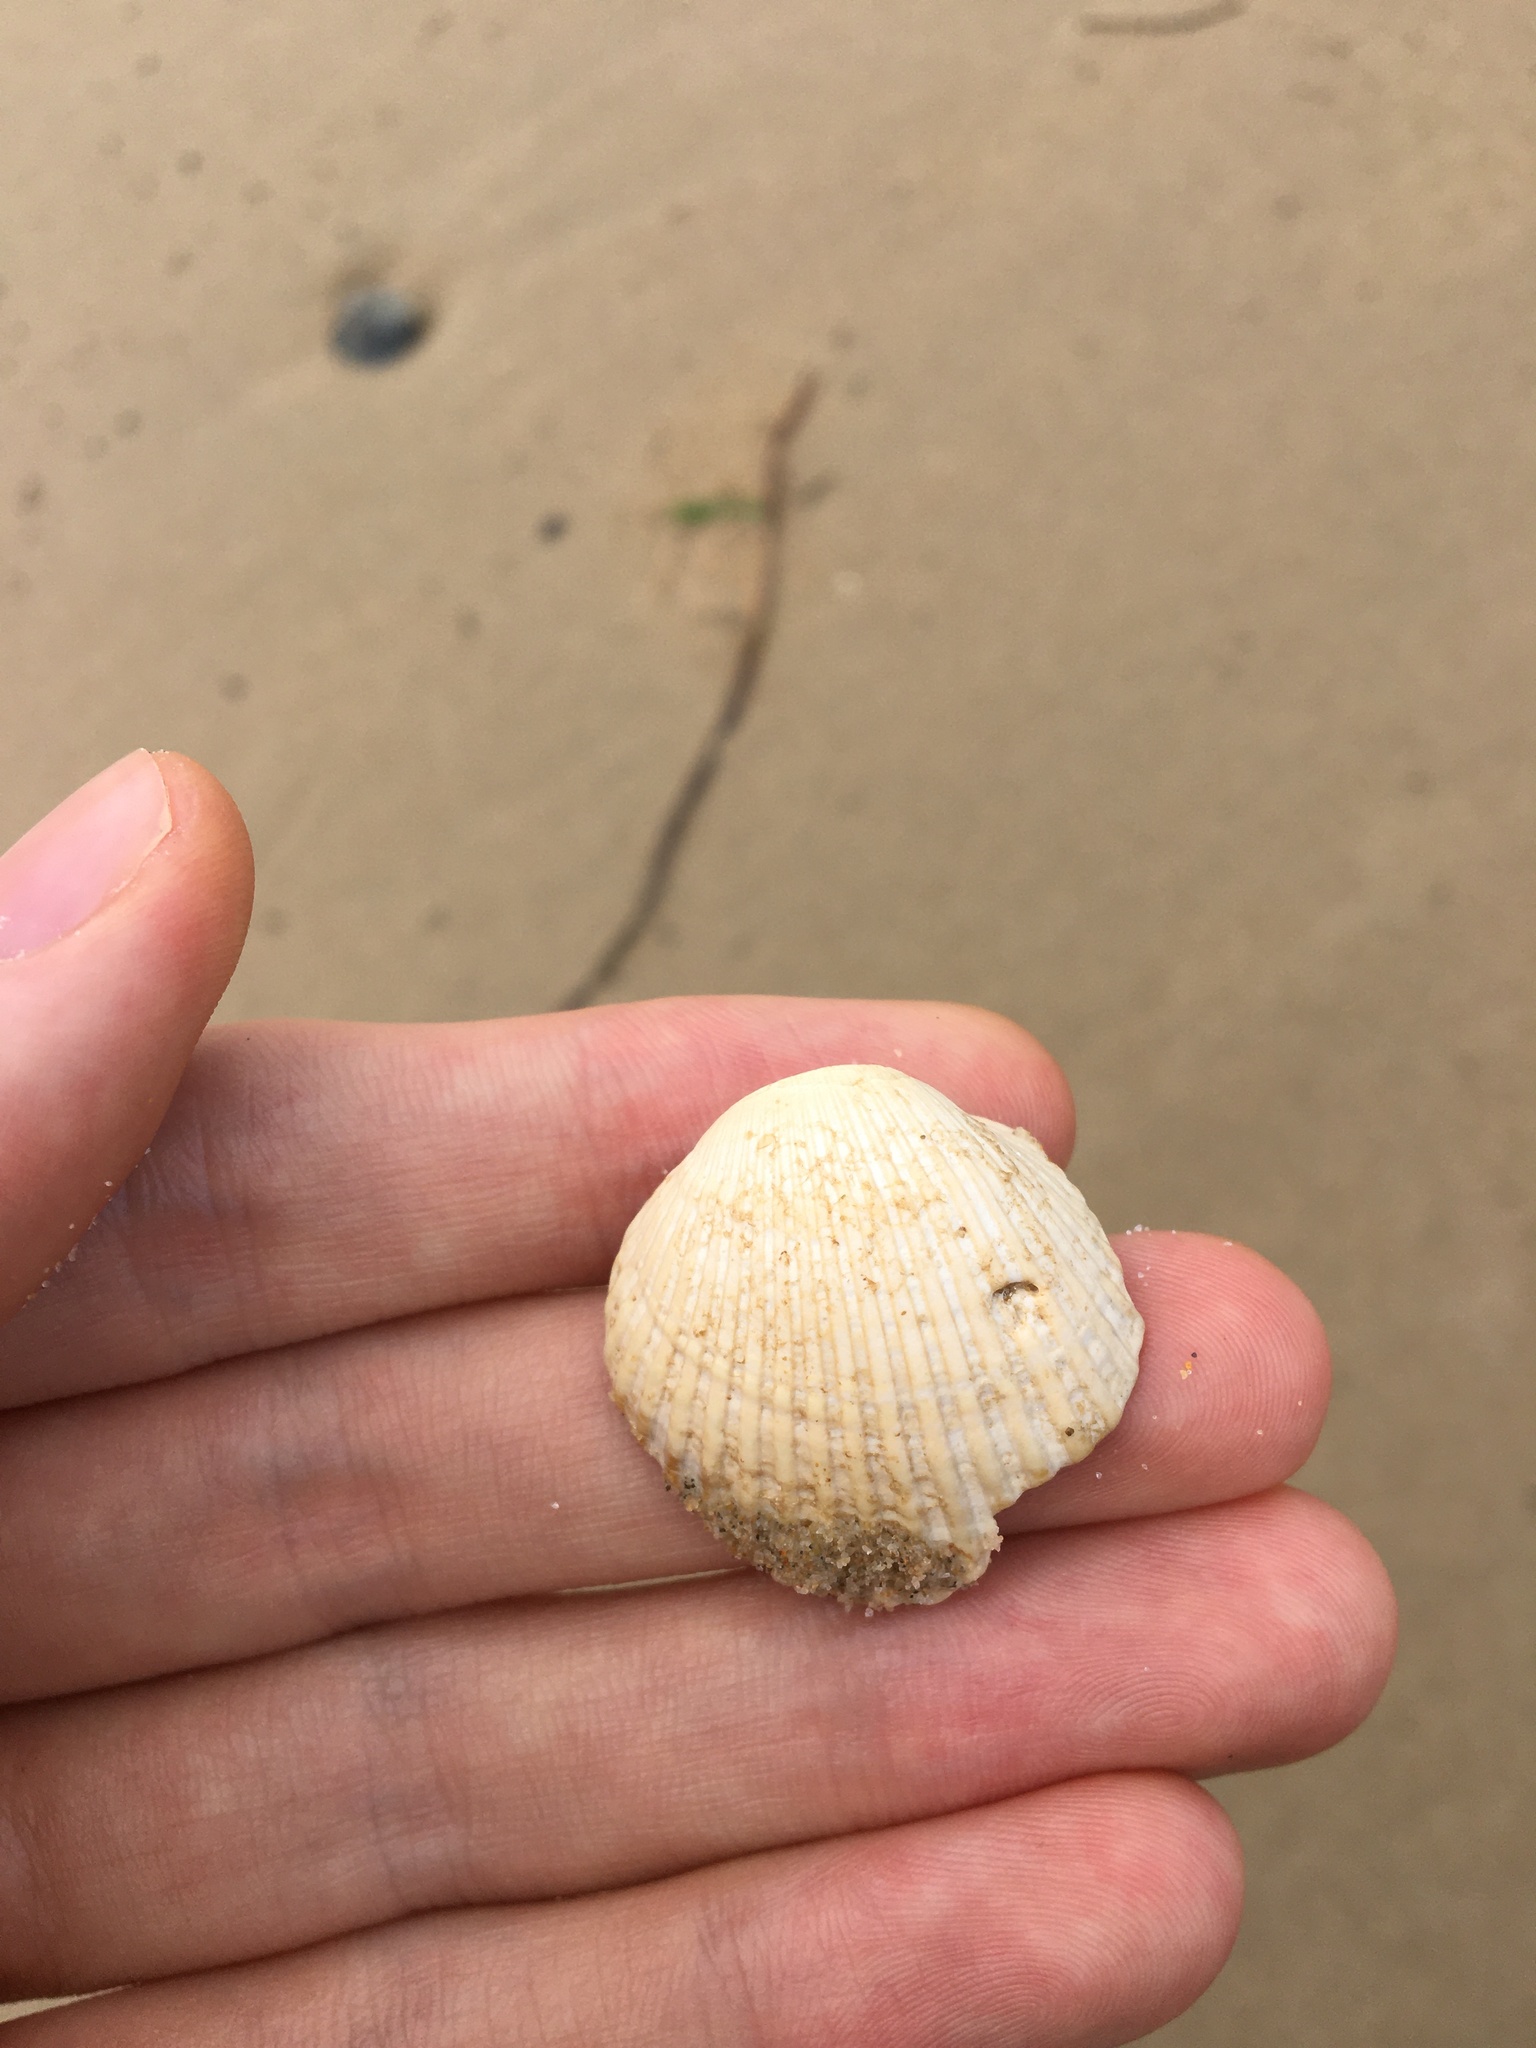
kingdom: Animalia
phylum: Mollusca
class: Bivalvia
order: Arcida
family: Arcidae
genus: Anadara
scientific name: Anadara trapezia
